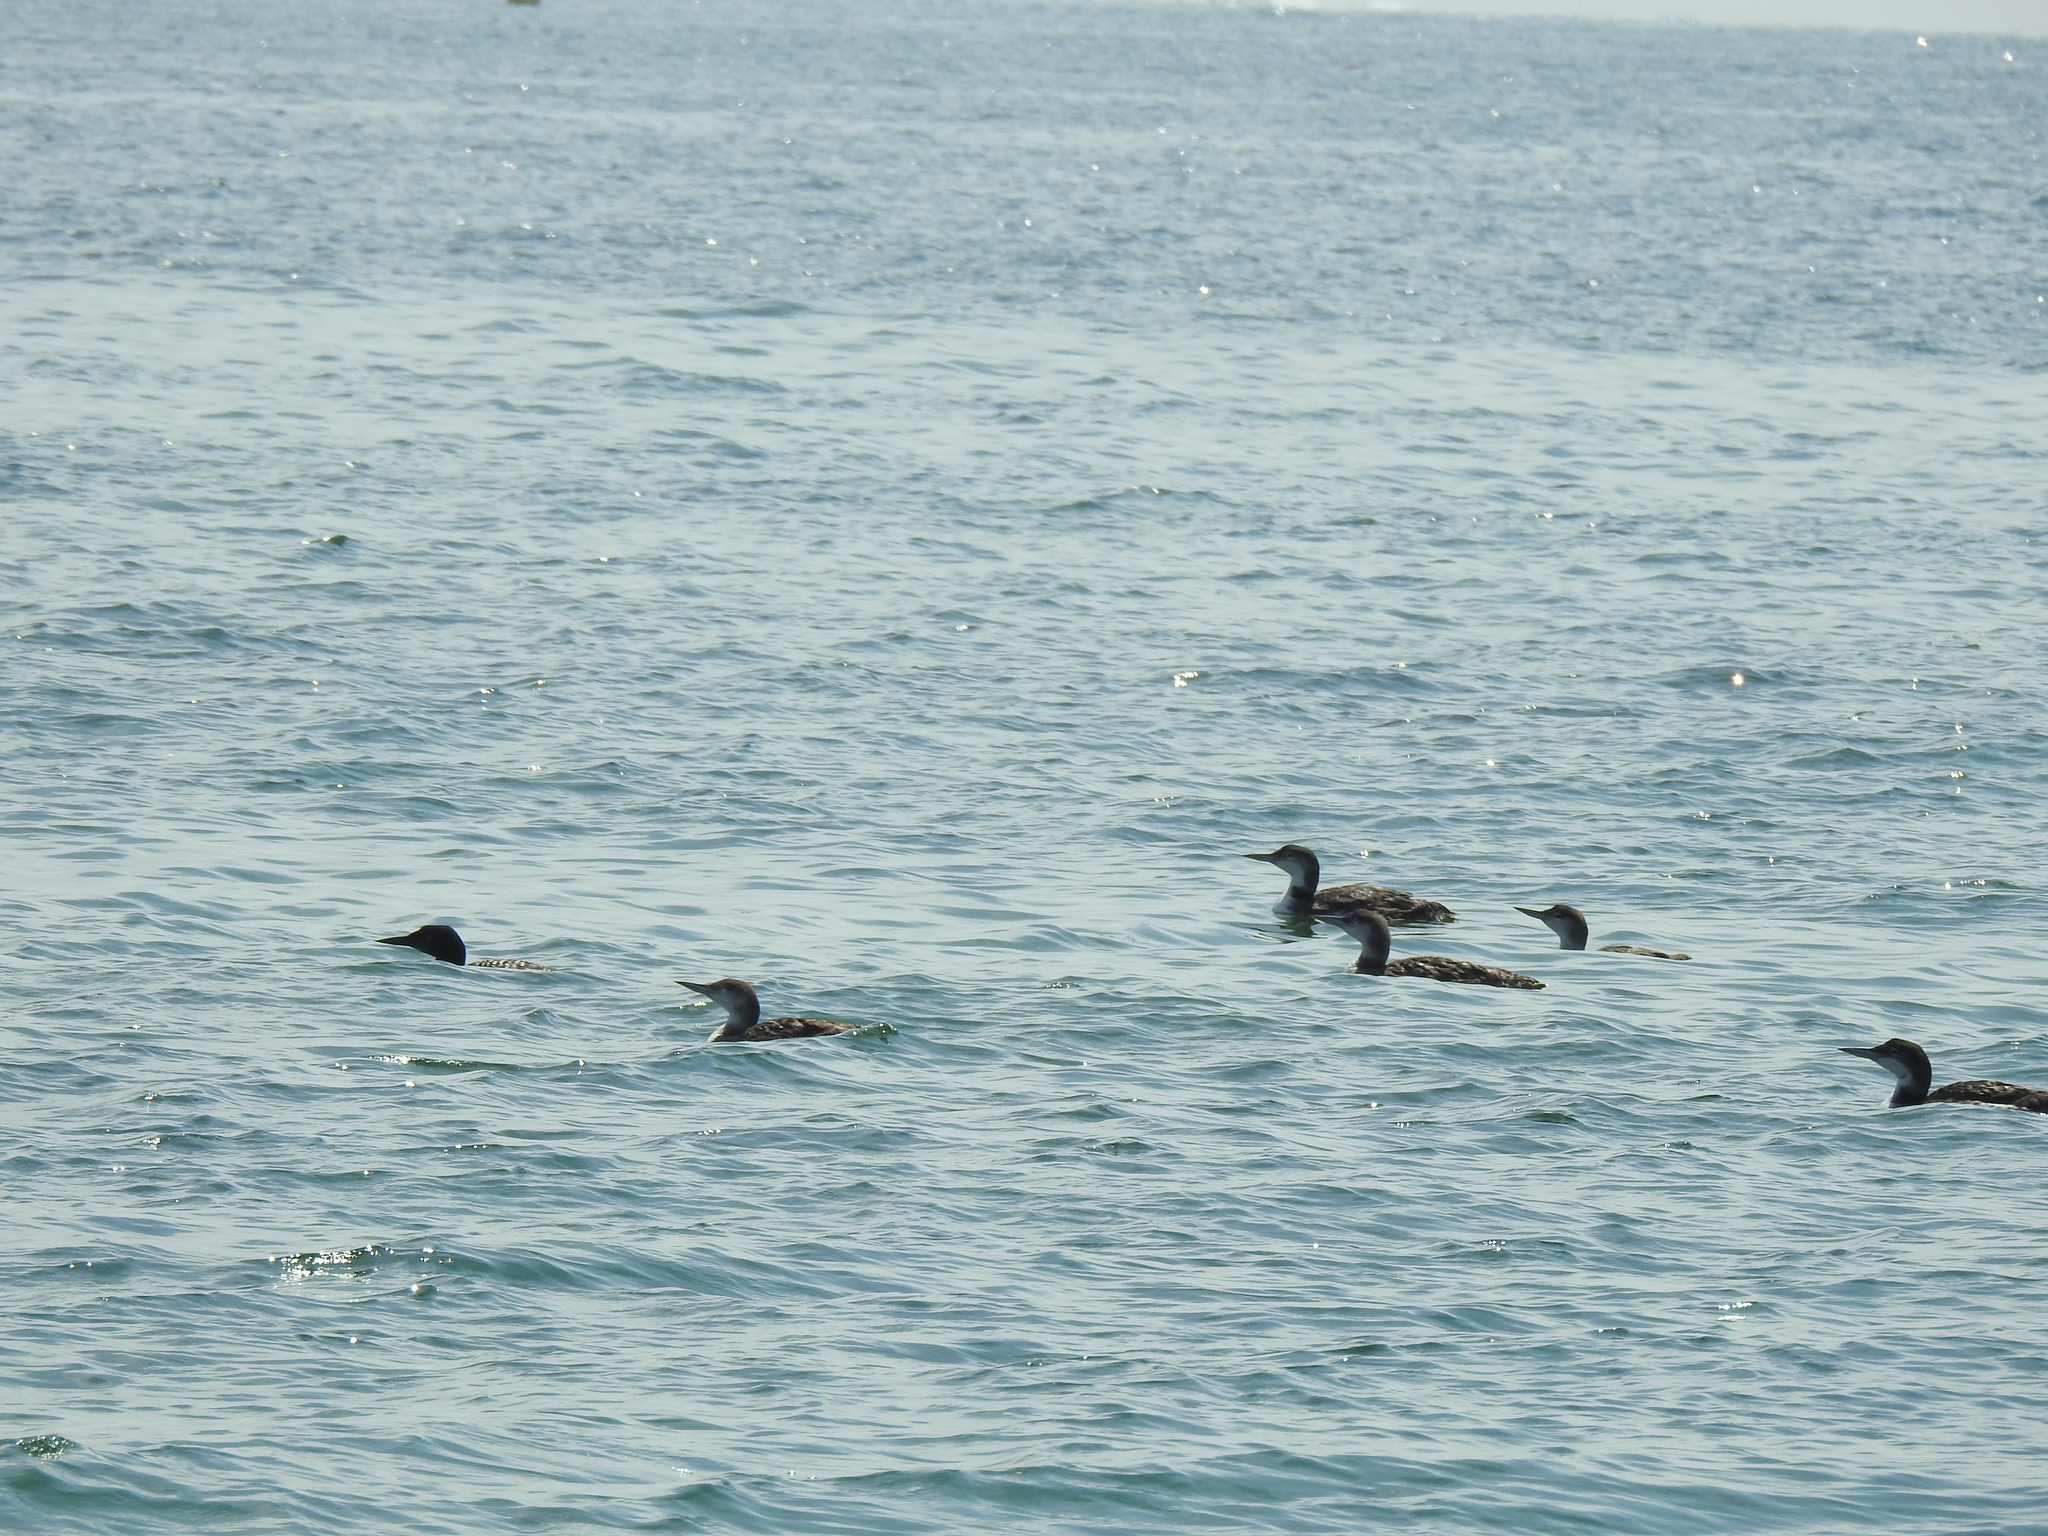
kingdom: Animalia
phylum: Chordata
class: Aves
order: Gaviiformes
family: Gaviidae
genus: Gavia
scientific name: Gavia immer
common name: Common loon
